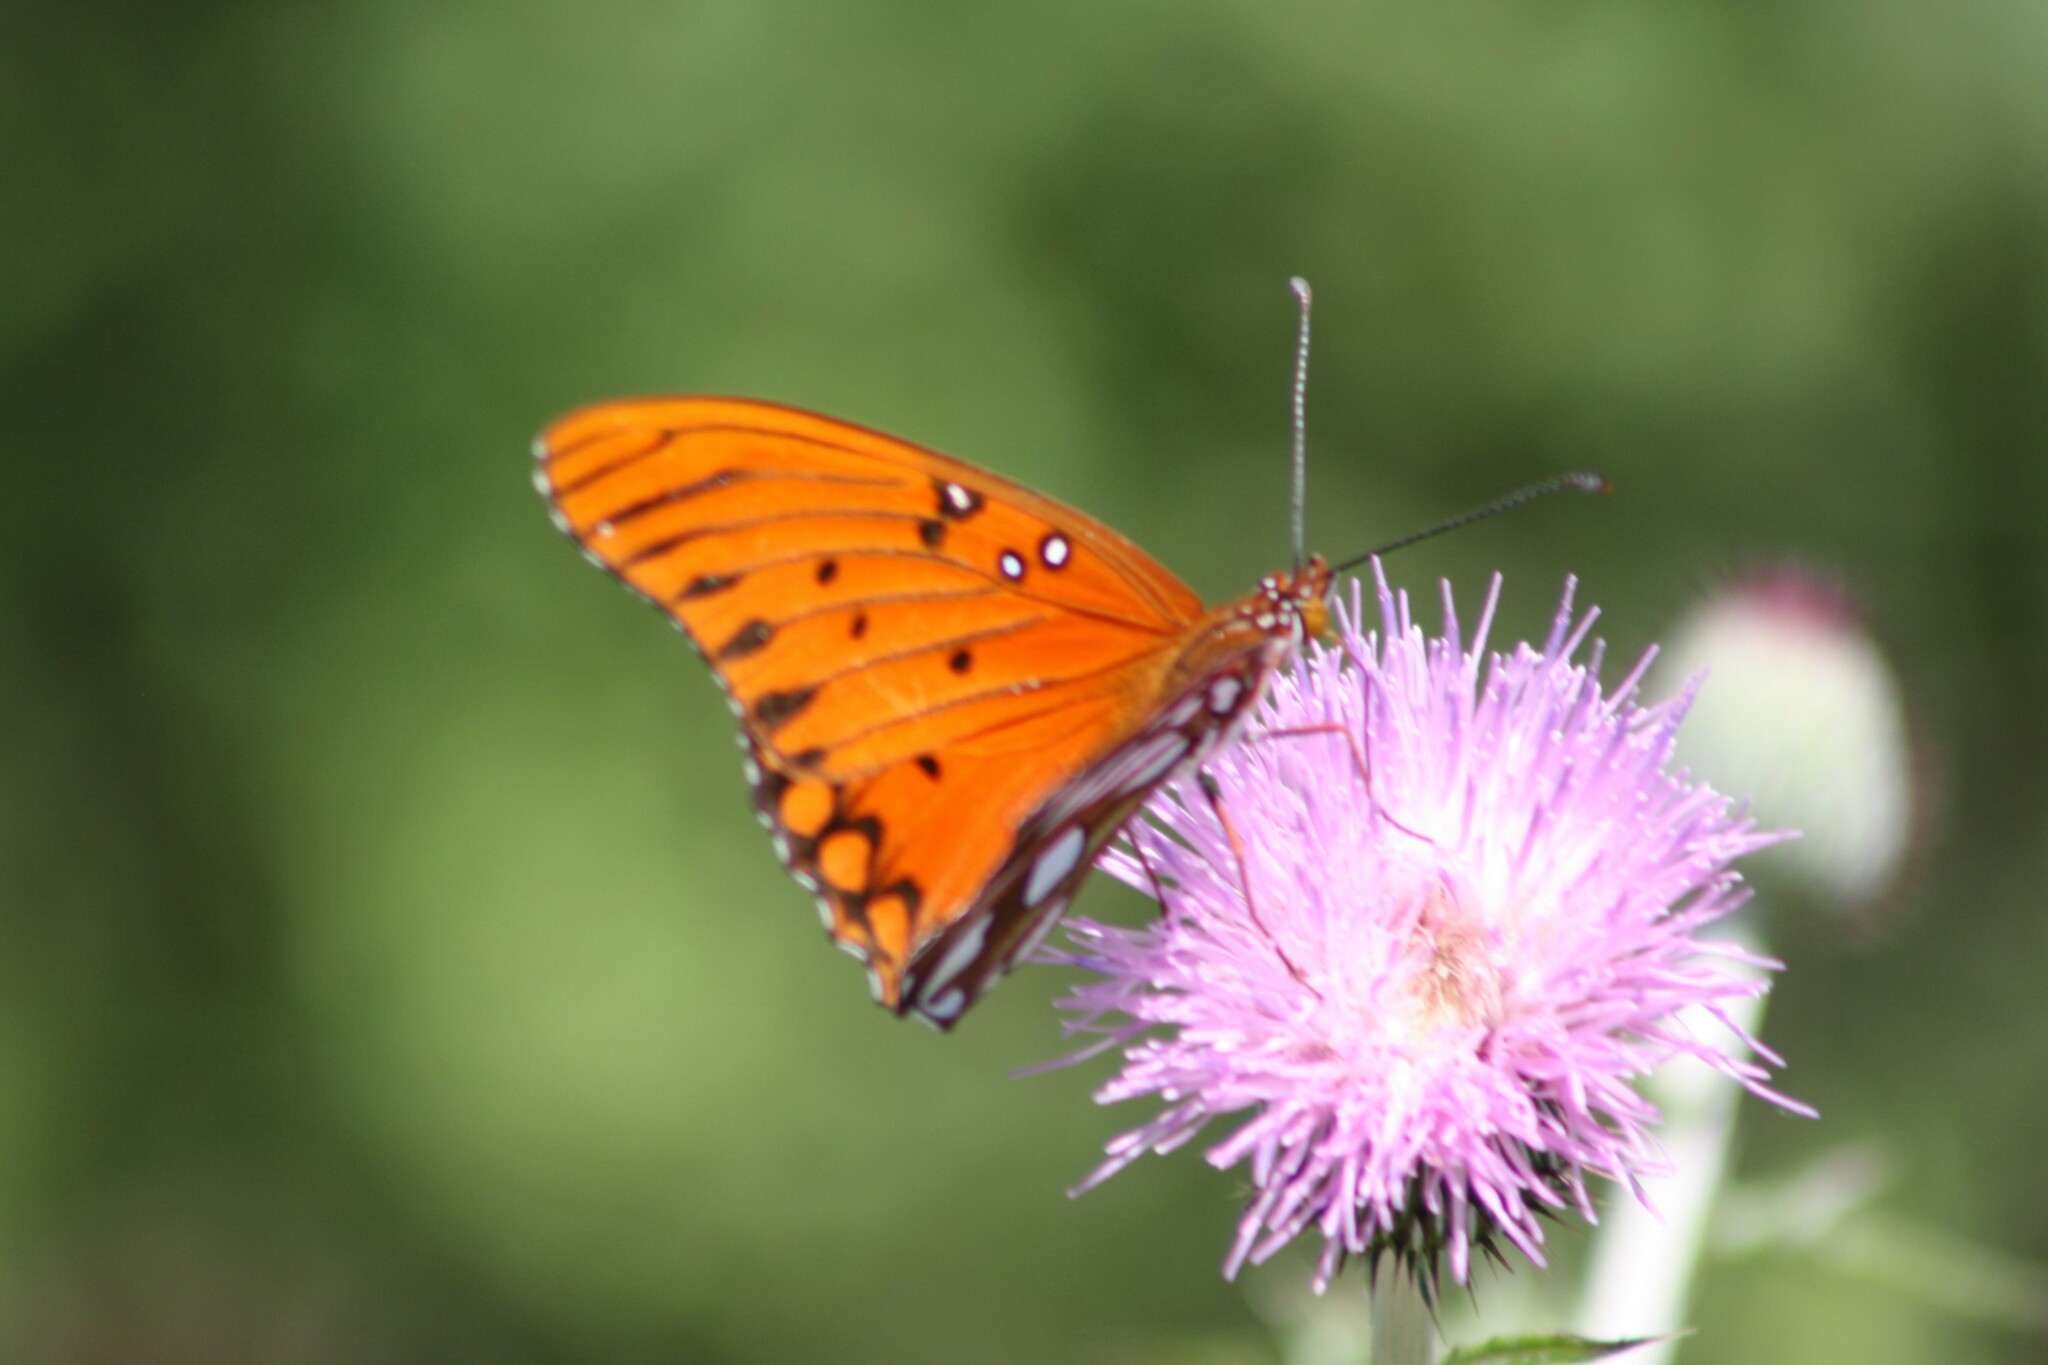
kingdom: Animalia
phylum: Arthropoda
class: Insecta
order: Lepidoptera
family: Nymphalidae
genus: Dione
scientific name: Dione vanillae
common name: Gulf fritillary
